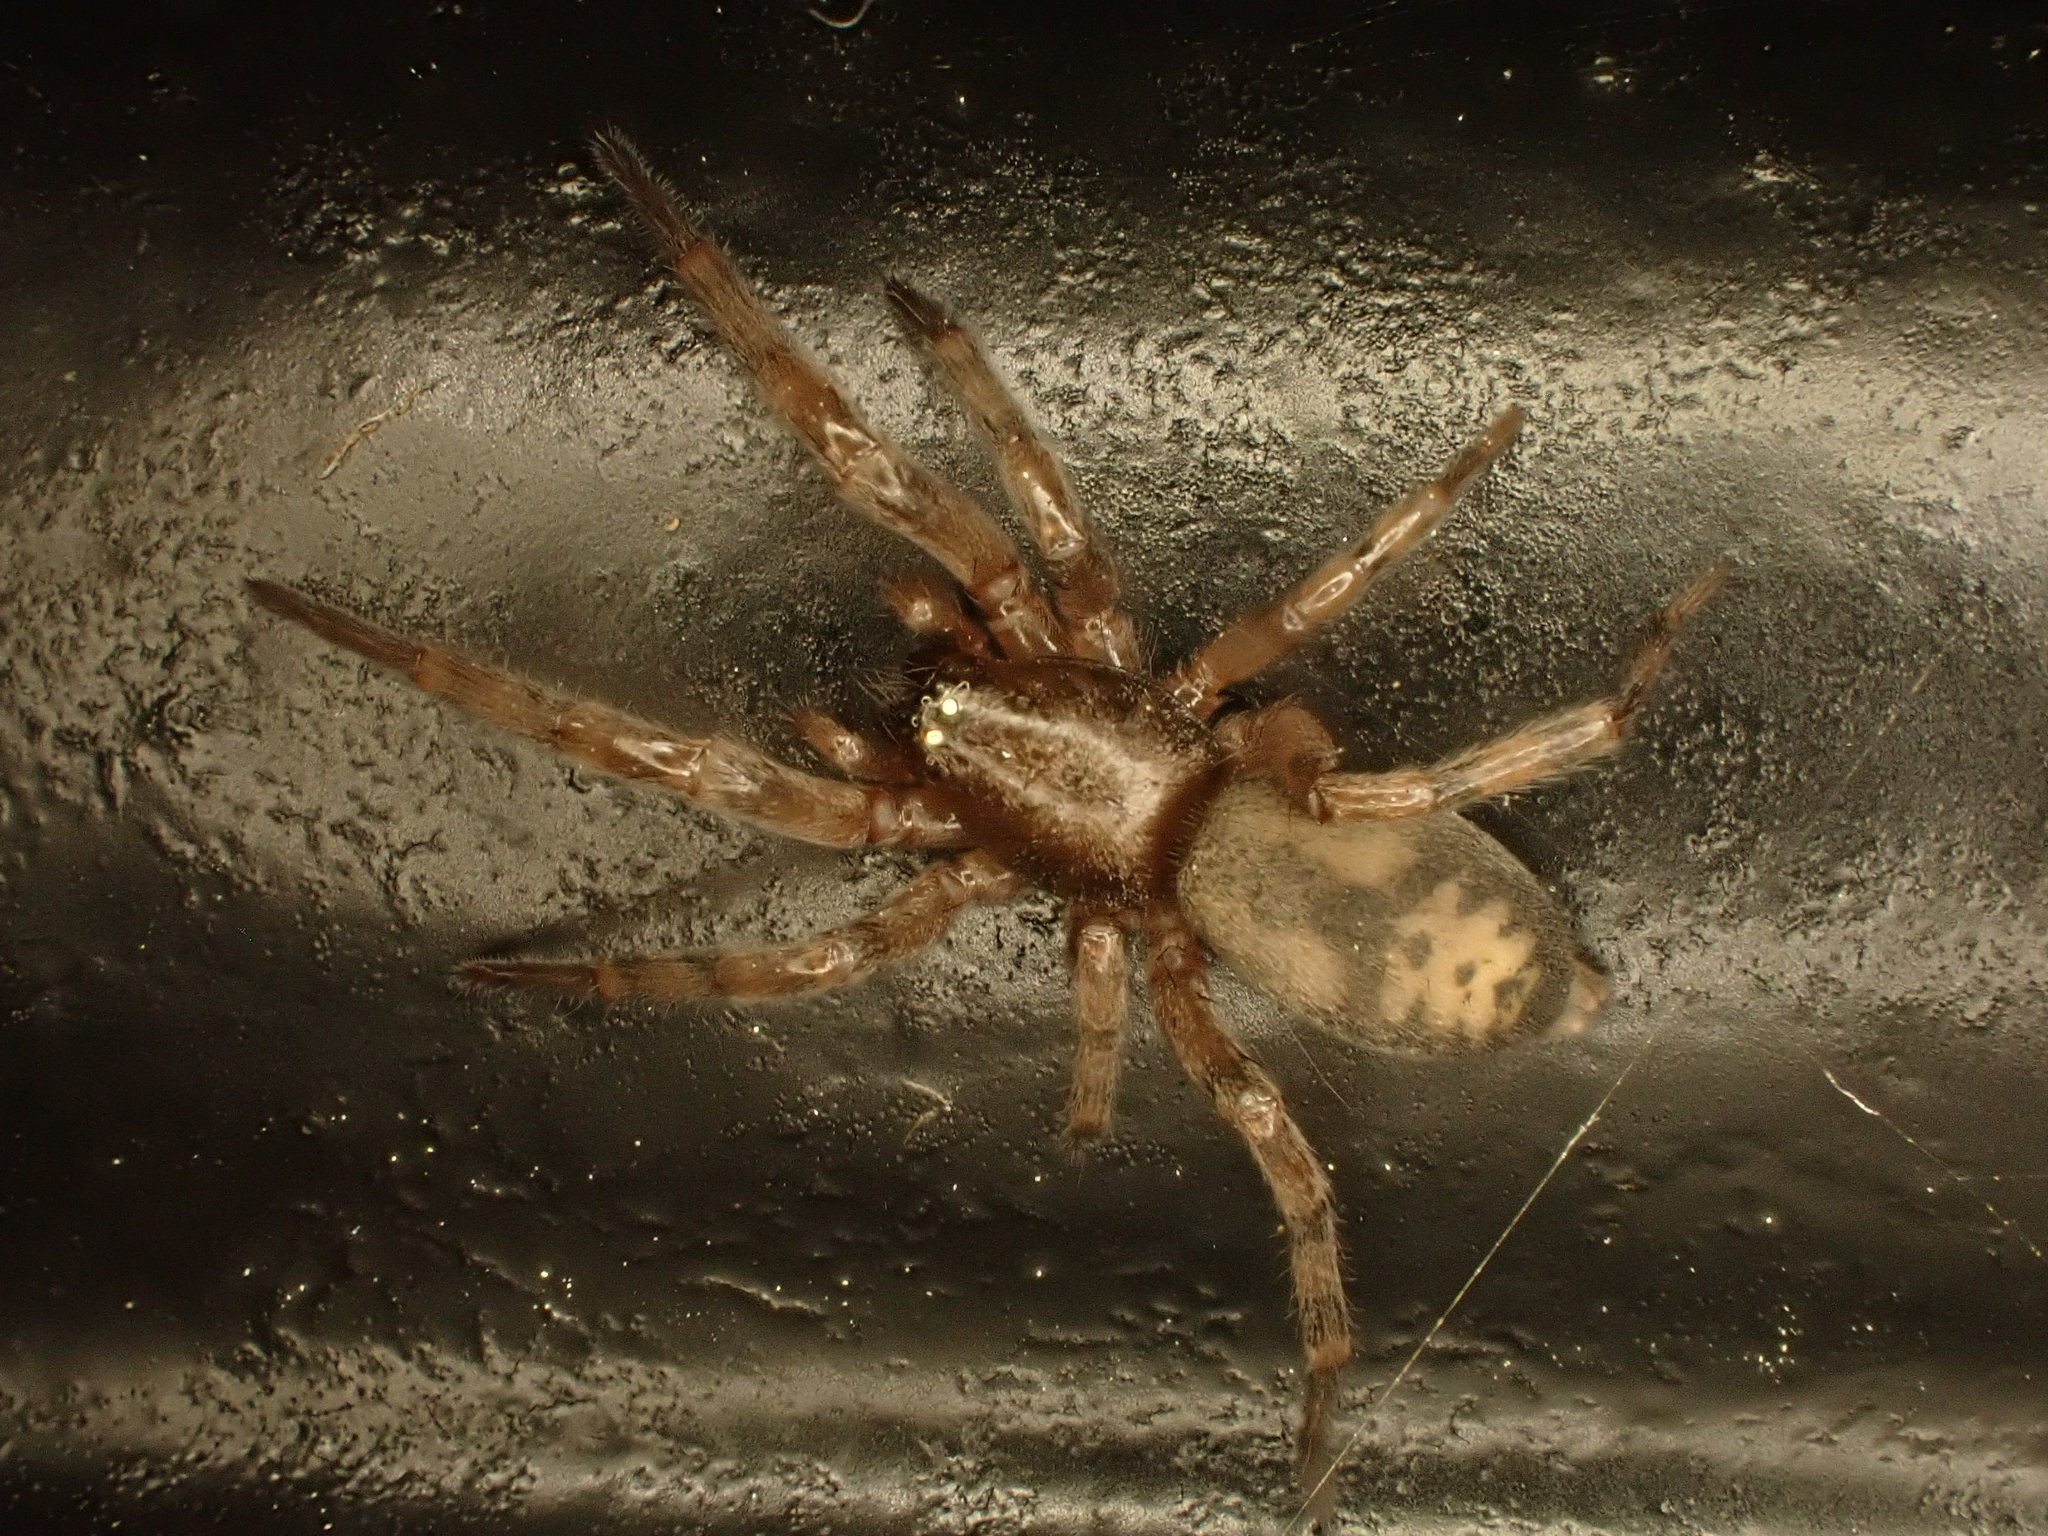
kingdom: Animalia
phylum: Arthropoda
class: Arachnida
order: Araneae
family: Gnaphosidae
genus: Intruda
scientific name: Intruda signata
